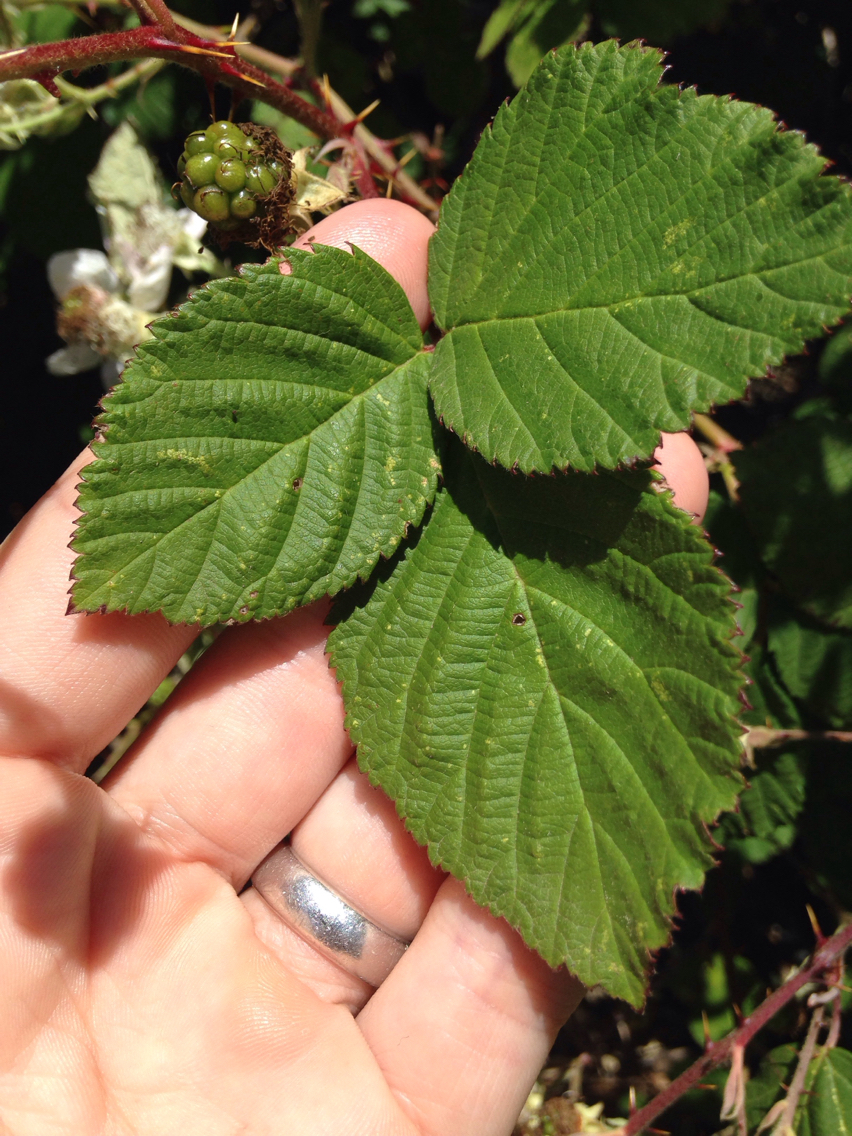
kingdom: Plantae
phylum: Tracheophyta
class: Magnoliopsida
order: Rosales
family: Rosaceae
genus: Rubus
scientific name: Rubus armeniacus
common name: Himalayan blackberry
